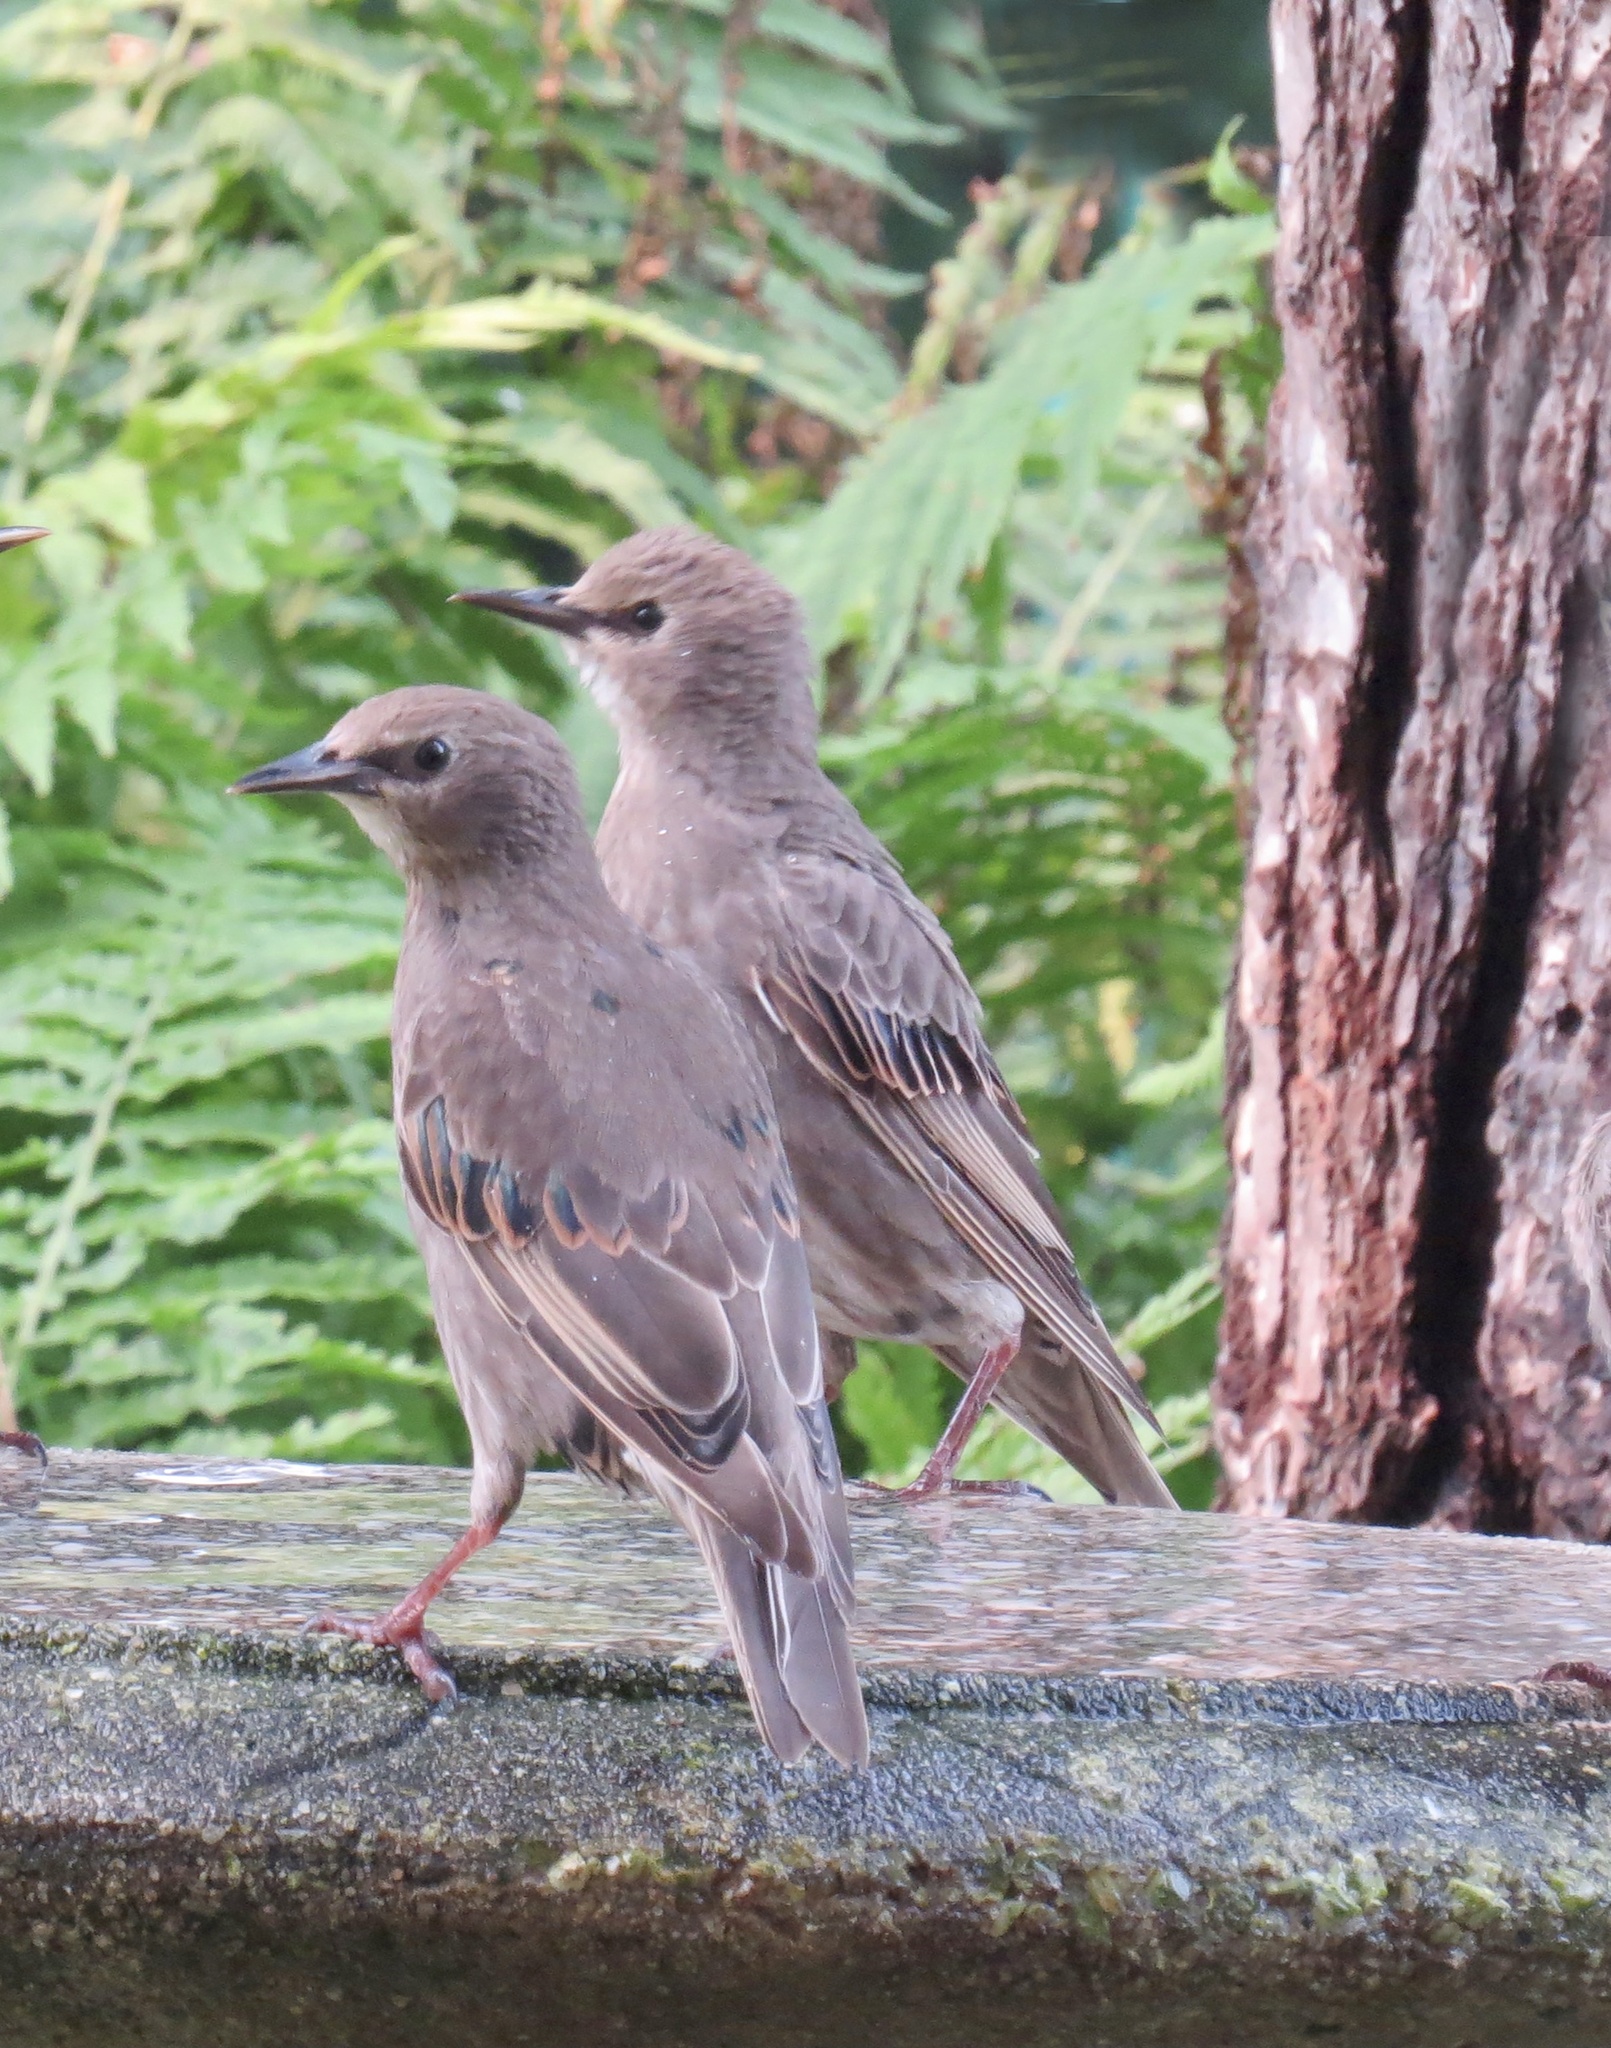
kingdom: Animalia
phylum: Chordata
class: Aves
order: Passeriformes
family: Sturnidae
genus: Sturnus
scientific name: Sturnus vulgaris
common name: Common starling
